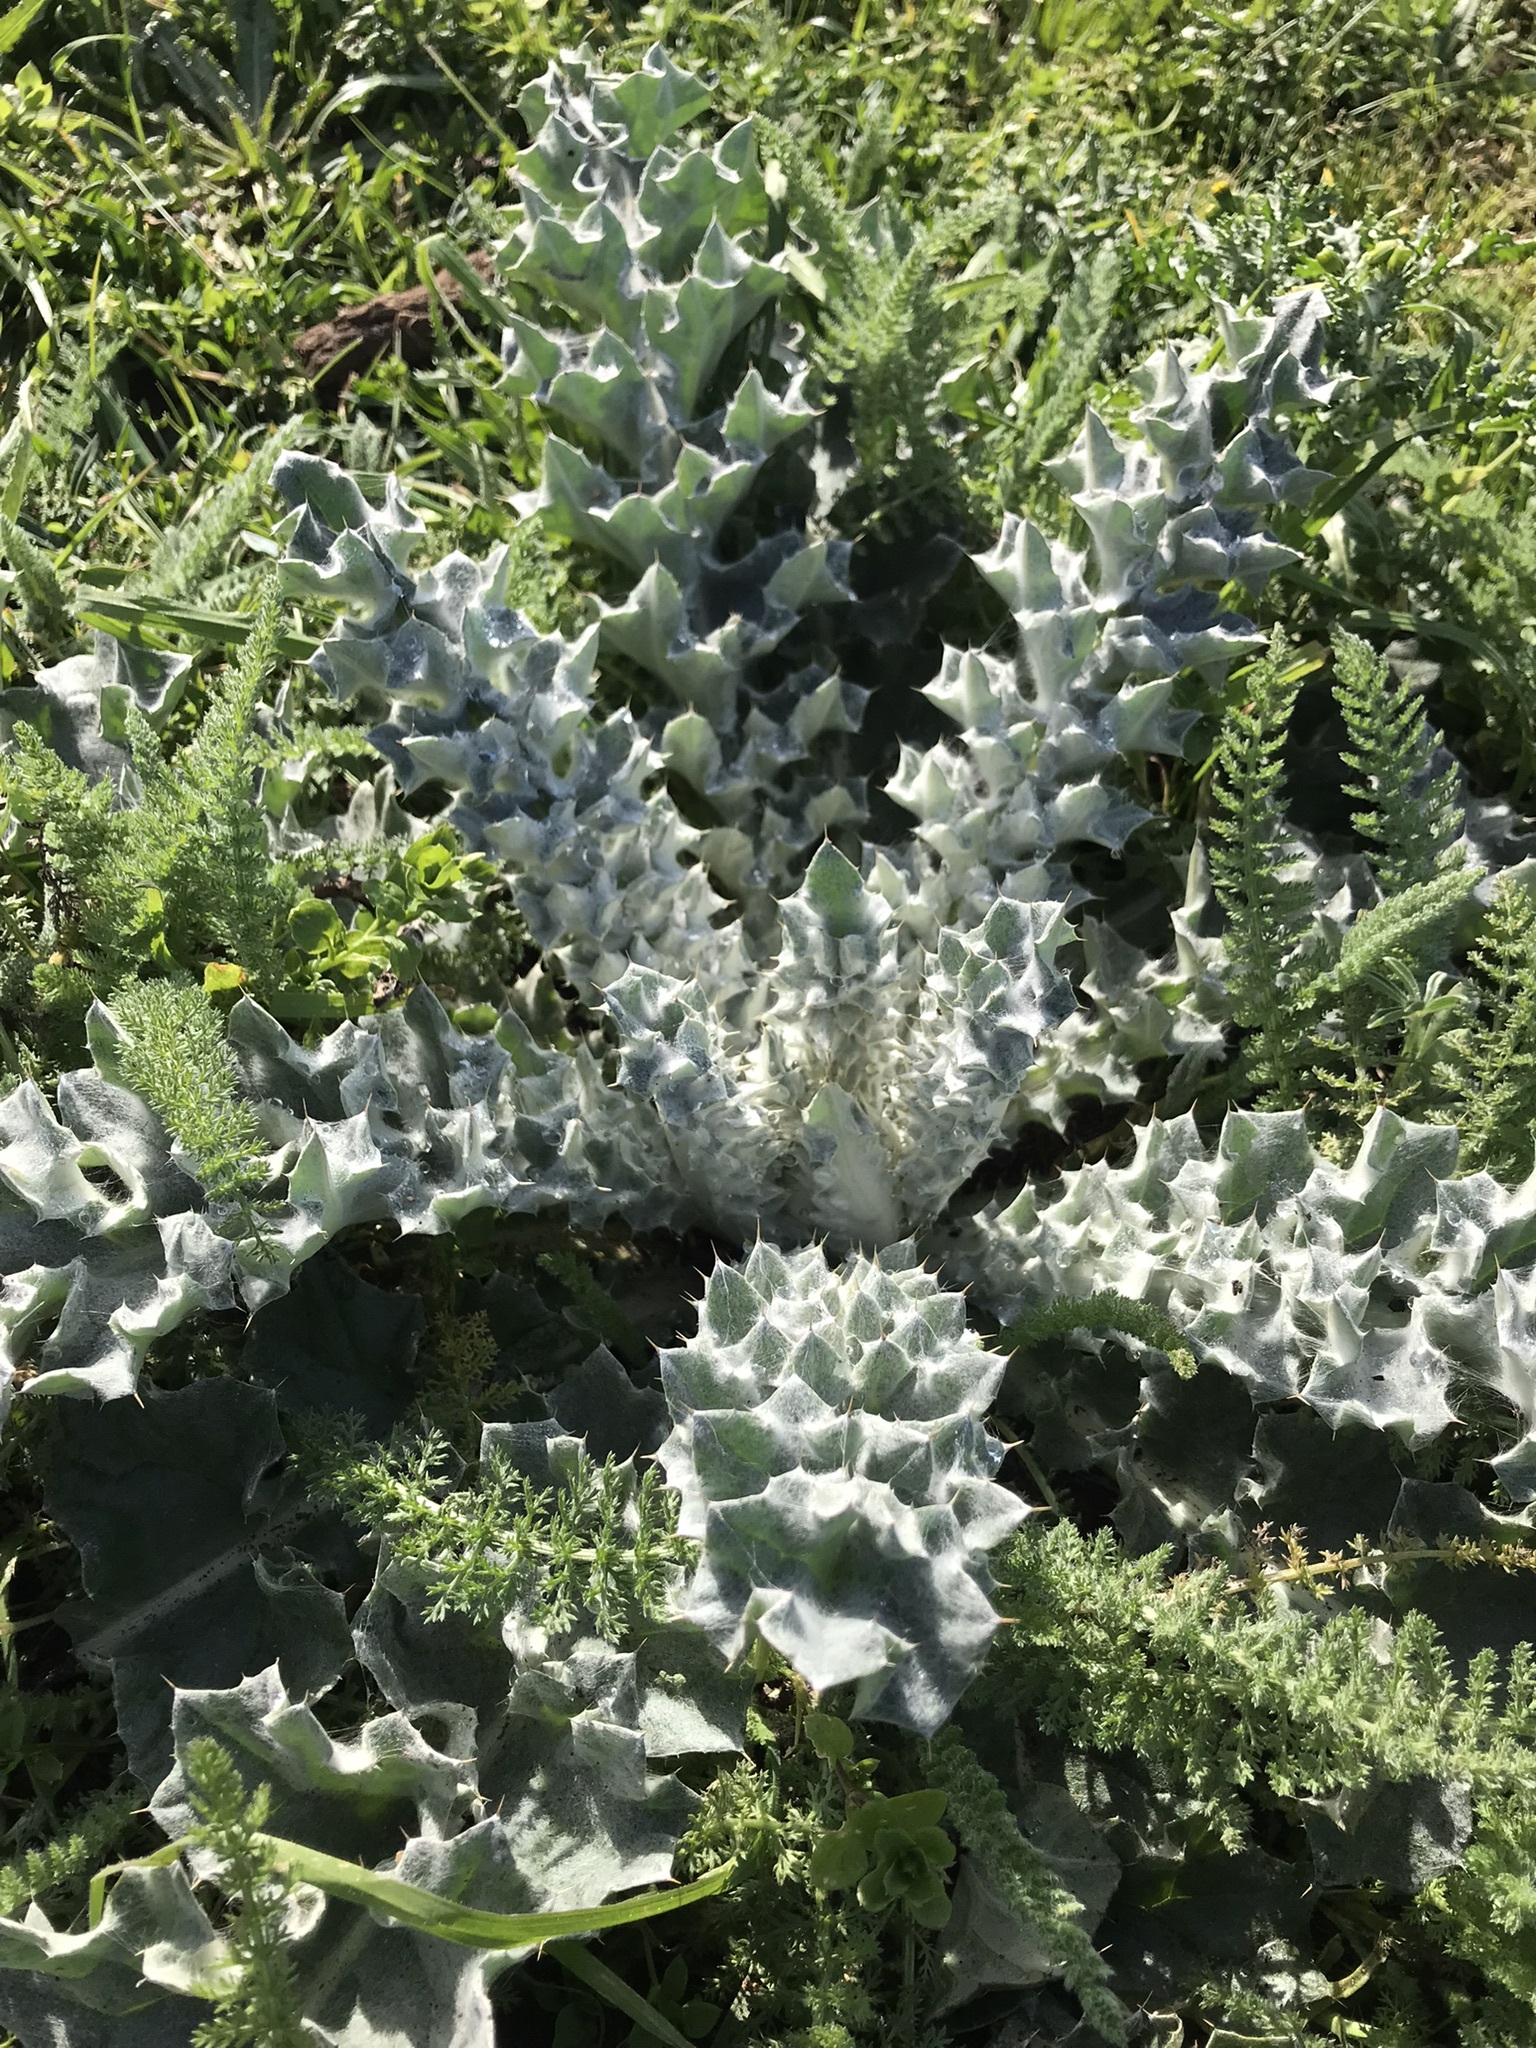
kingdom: Plantae
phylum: Tracheophyta
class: Magnoliopsida
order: Asterales
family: Asteraceae
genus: Cirsium
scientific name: Cirsium occidentale
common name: Western thistle
